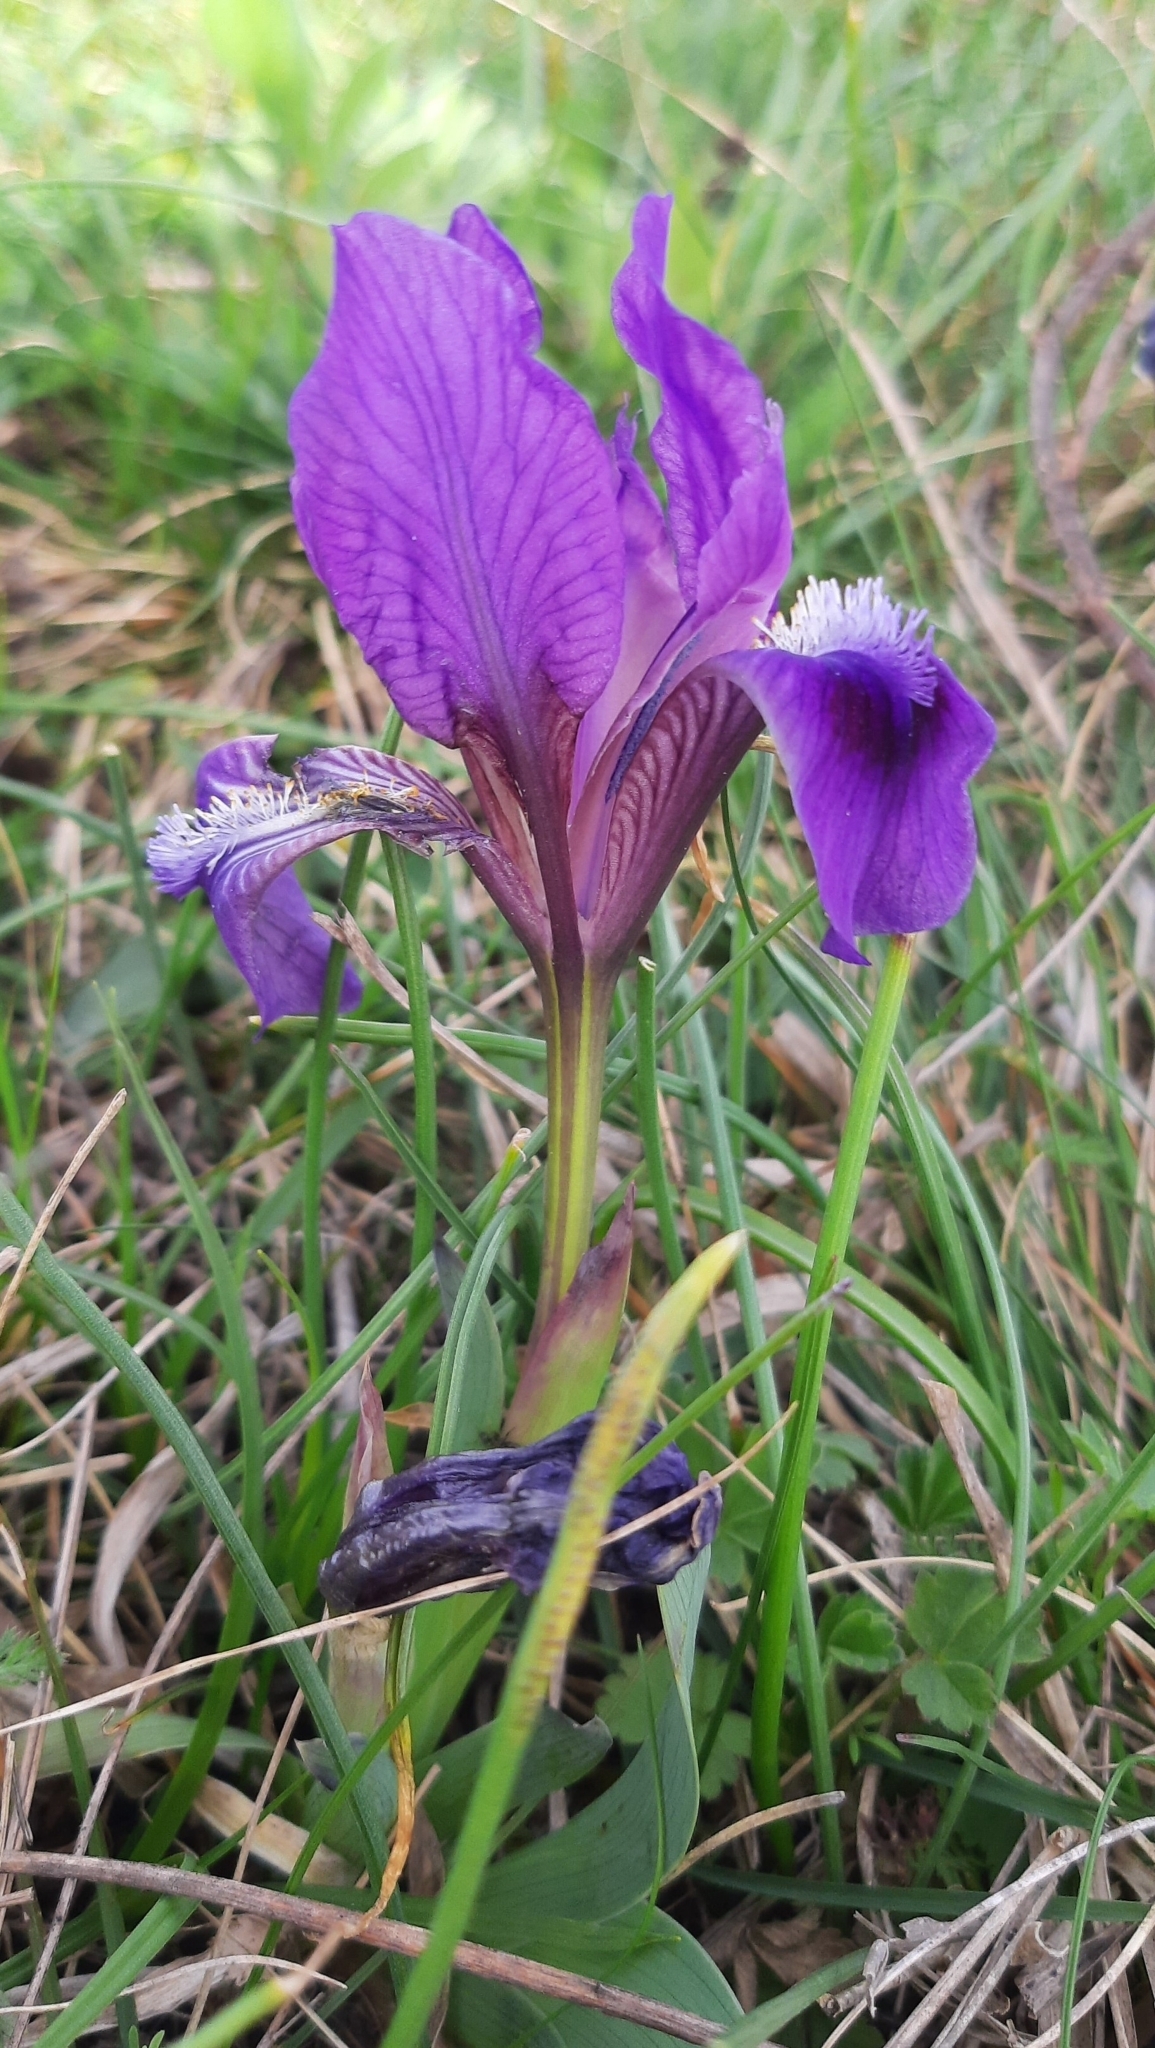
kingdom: Plantae
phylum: Tracheophyta
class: Liliopsida
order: Asparagales
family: Iridaceae
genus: Iris
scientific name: Iris pumila
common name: Dwarf iris
